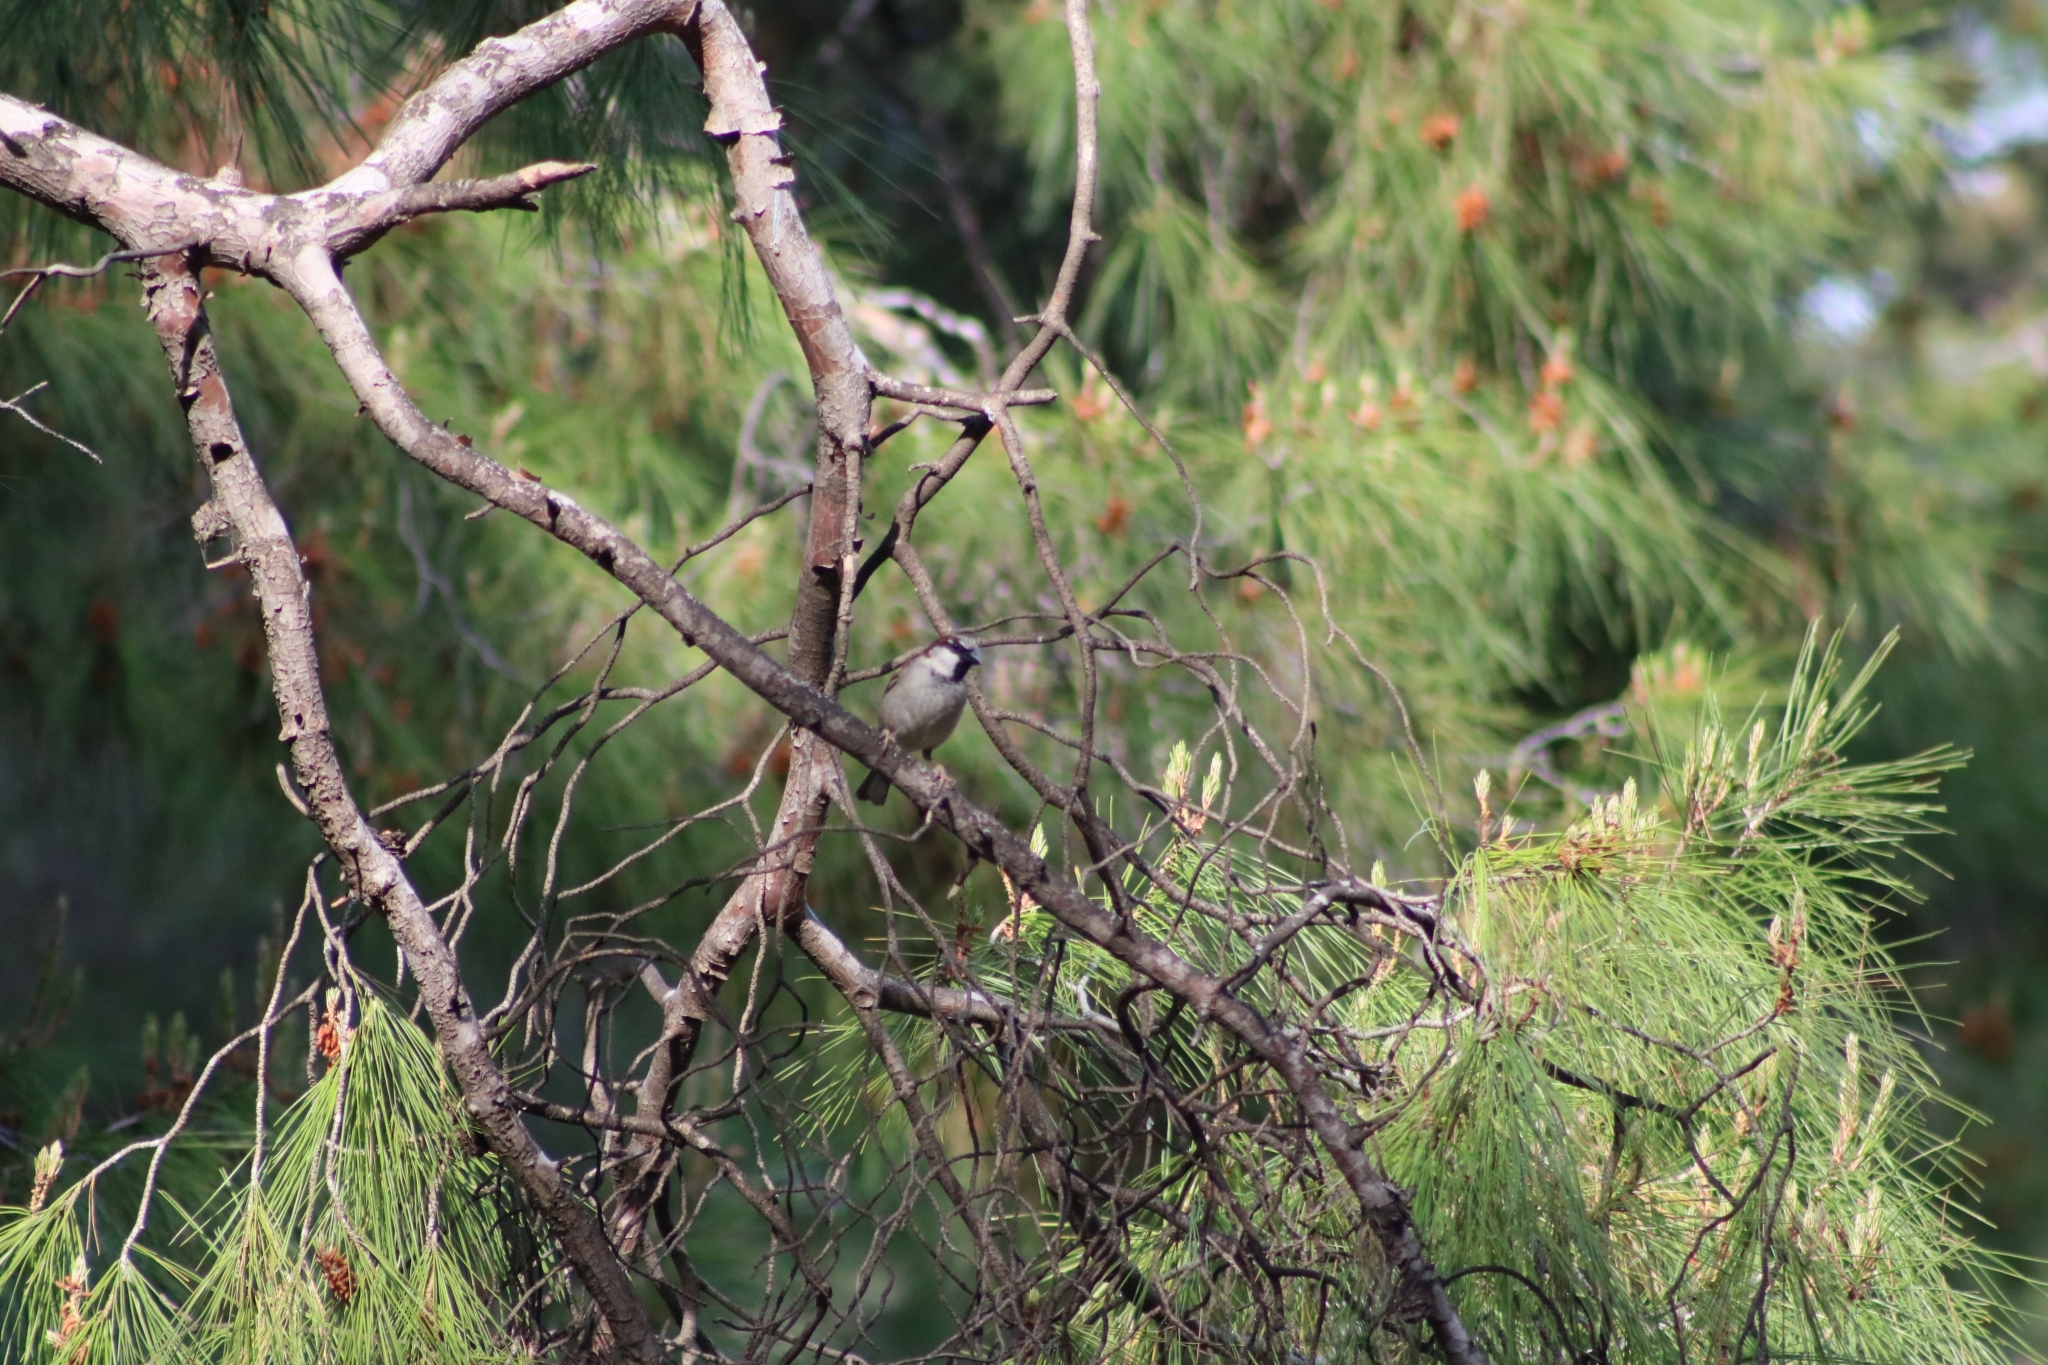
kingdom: Animalia
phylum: Chordata
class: Aves
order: Passeriformes
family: Passeridae
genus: Passer
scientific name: Passer domesticus
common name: House sparrow
